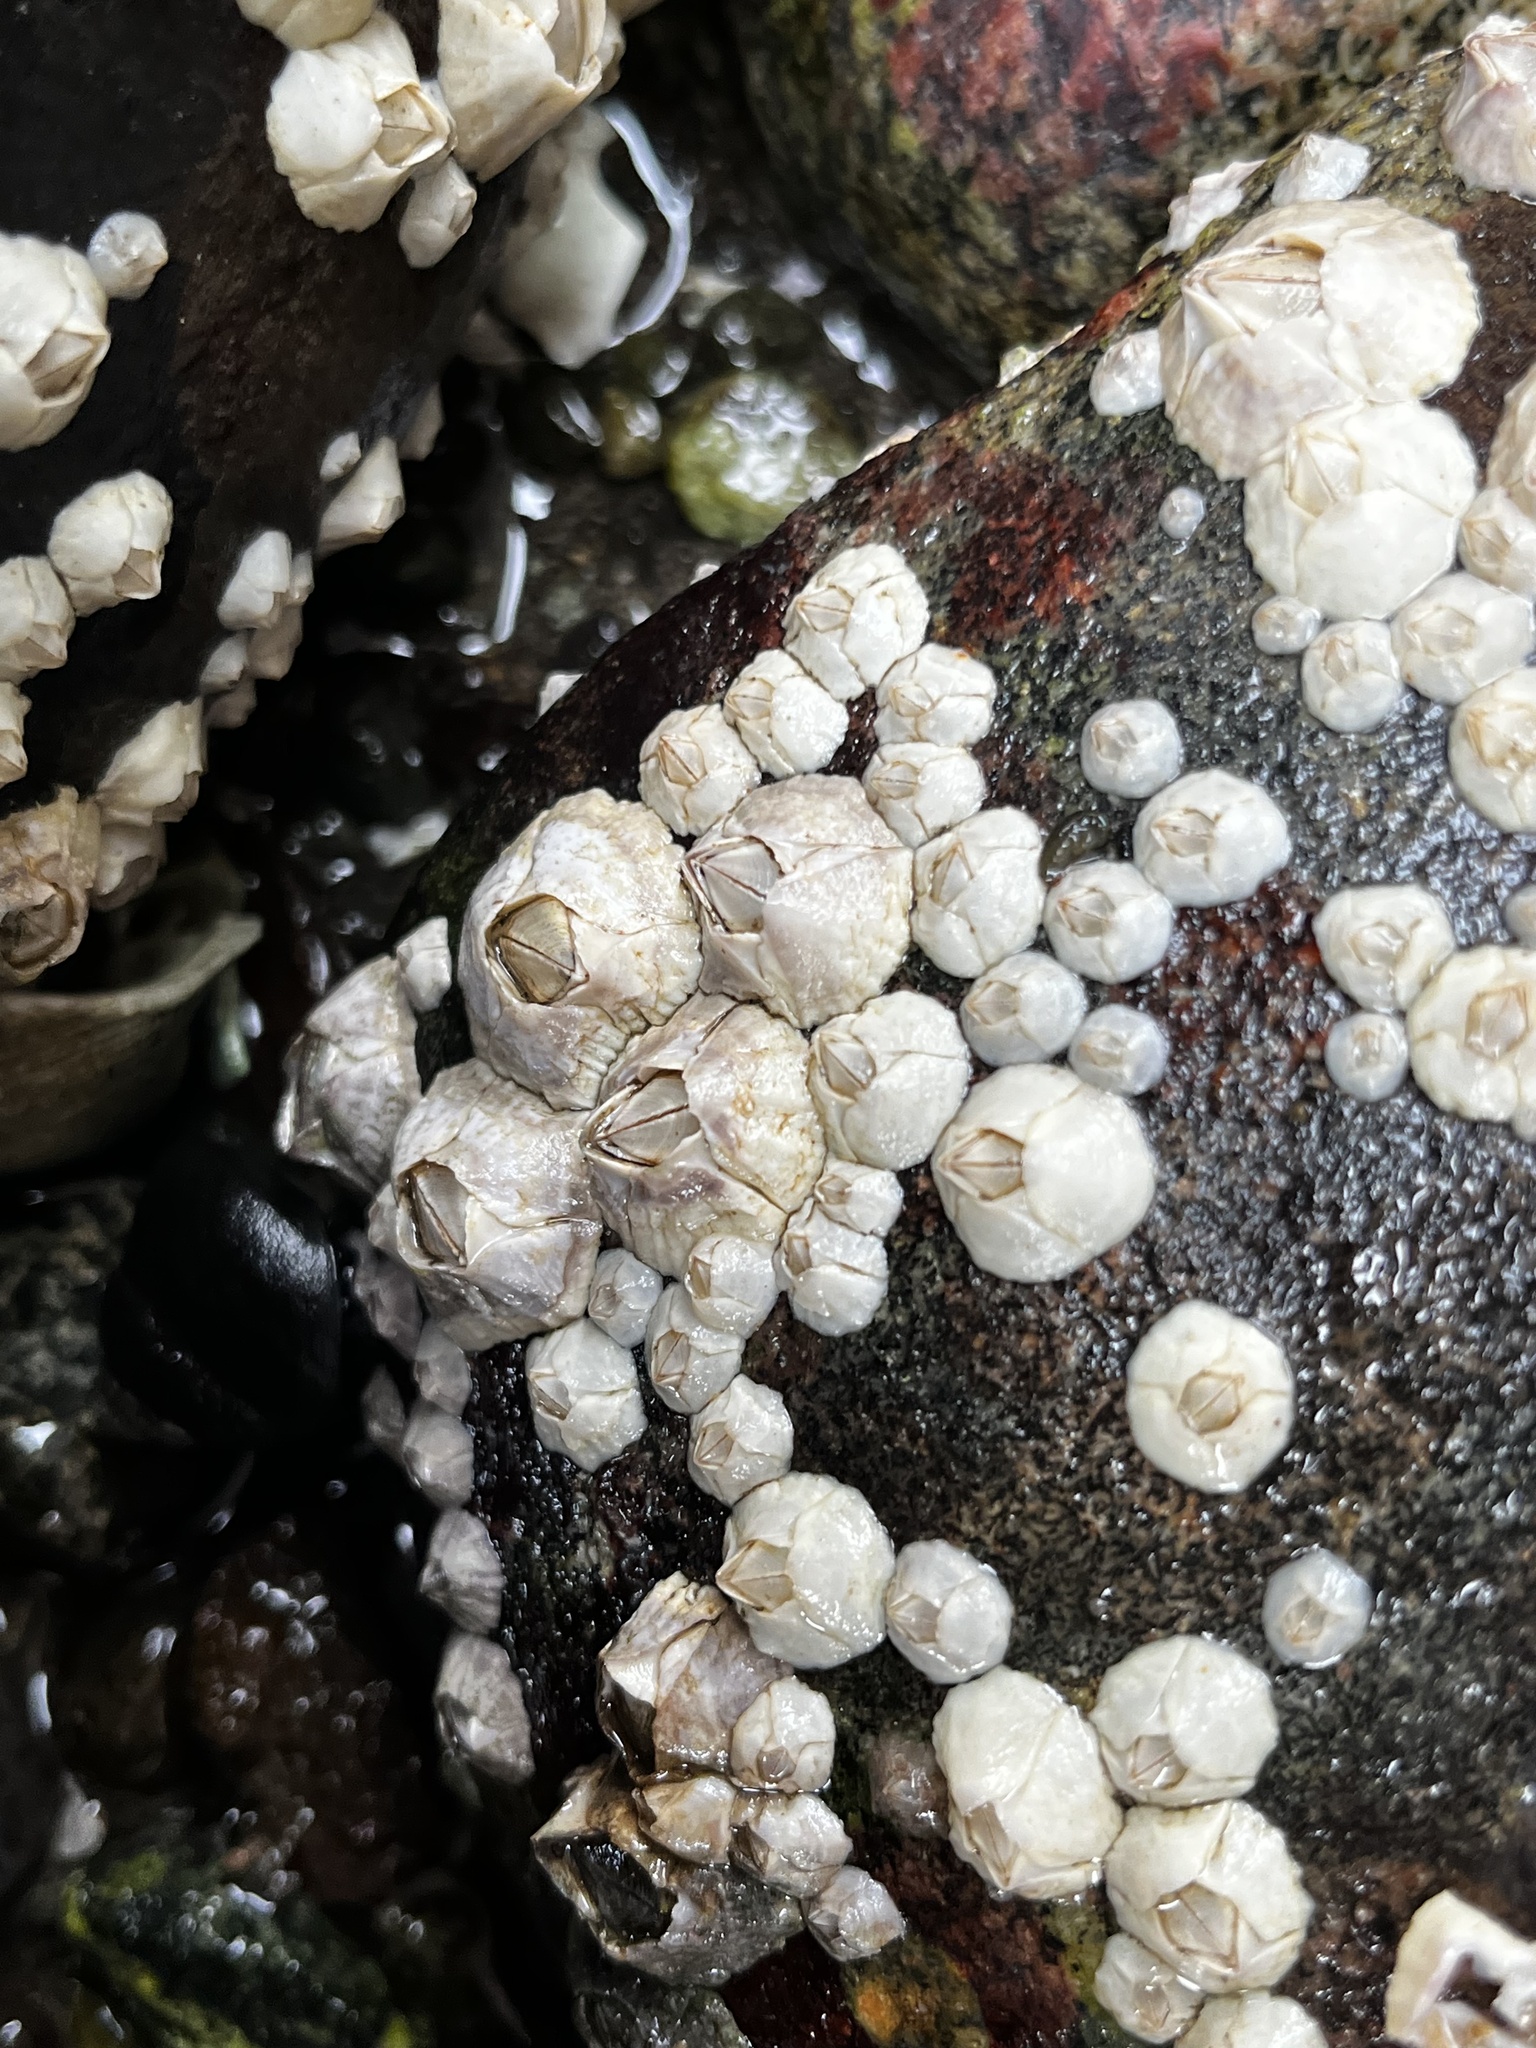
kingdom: Animalia
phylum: Arthropoda
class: Maxillopoda
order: Sessilia
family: Balanidae
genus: Elminius
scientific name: Elminius kingii
